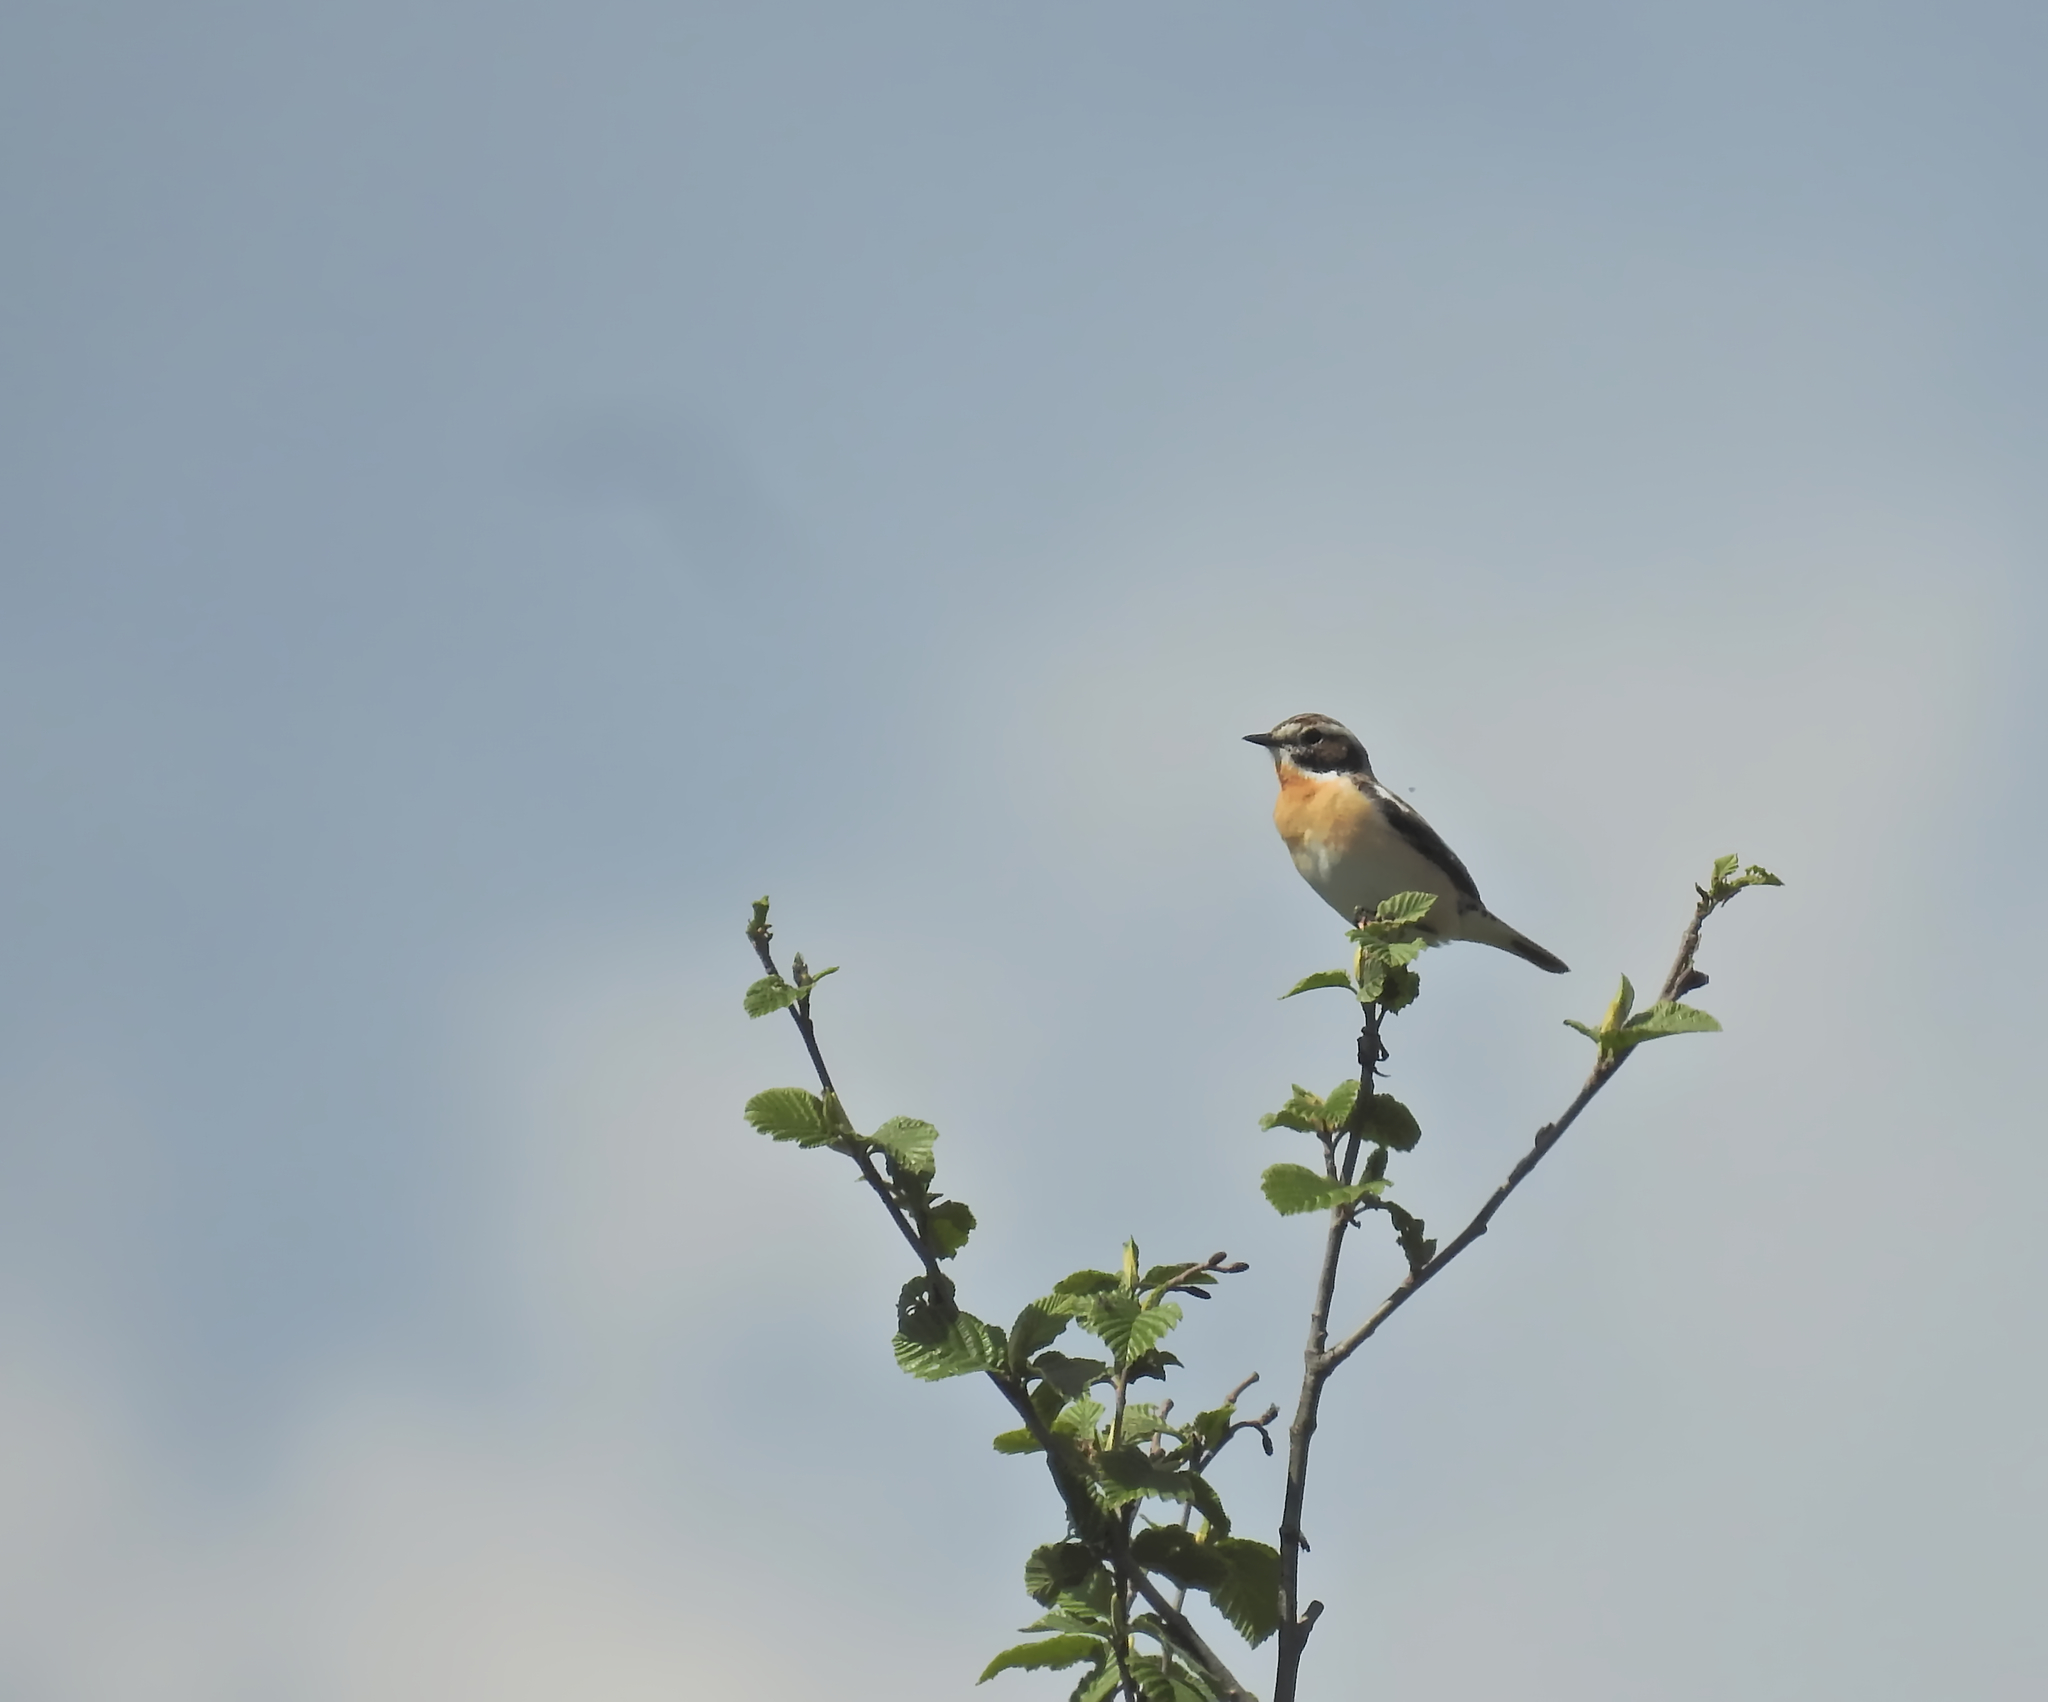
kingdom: Animalia
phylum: Chordata
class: Aves
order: Passeriformes
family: Muscicapidae
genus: Saxicola
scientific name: Saxicola rubetra
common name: Whinchat
